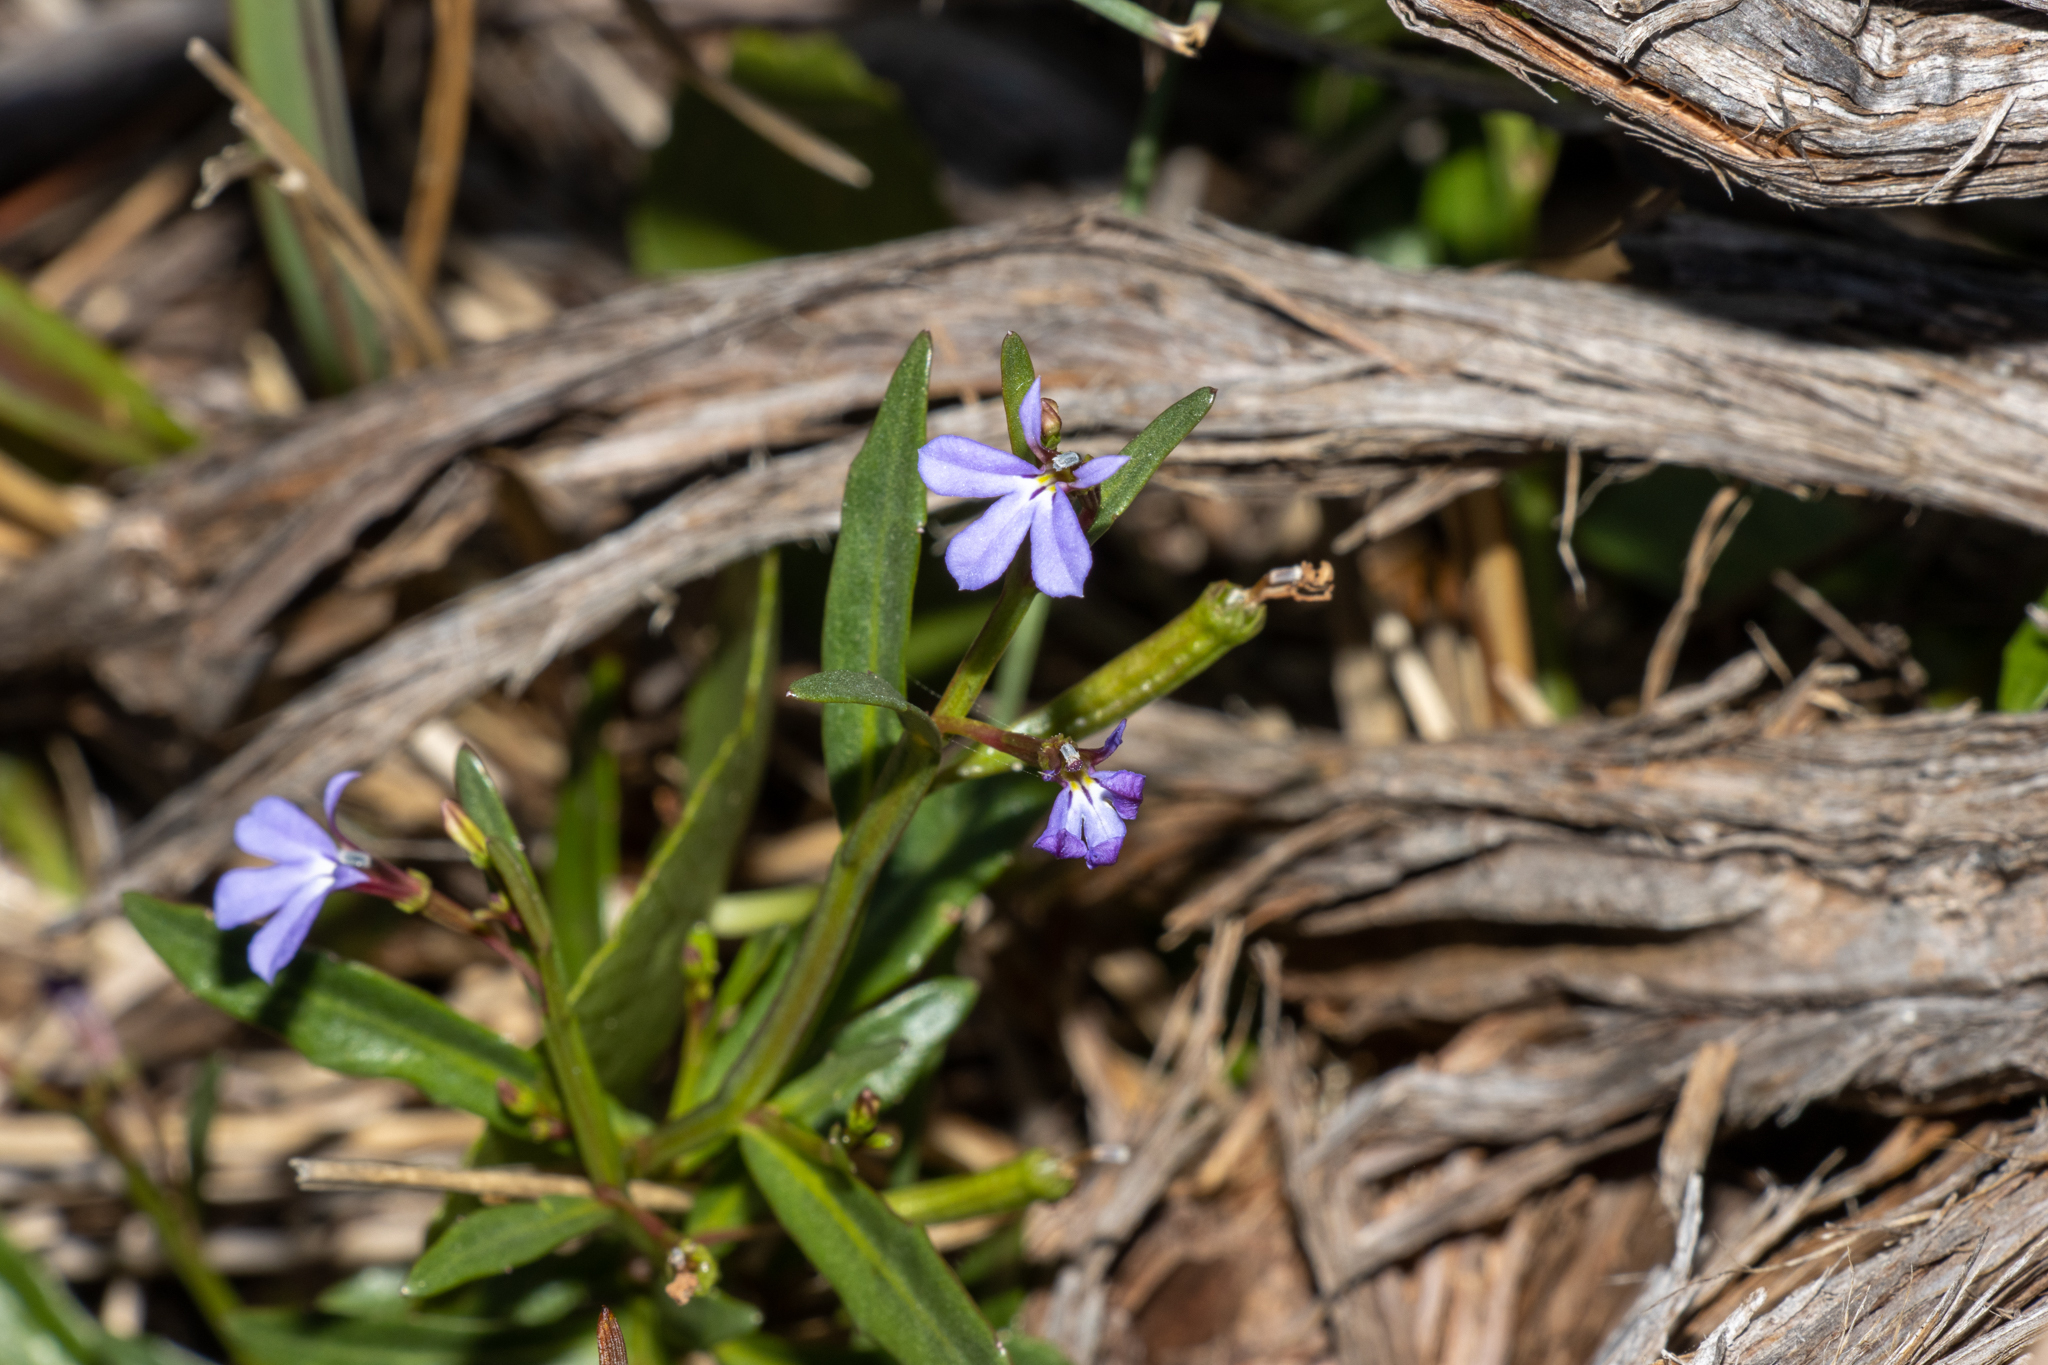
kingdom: Plantae
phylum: Tracheophyta
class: Magnoliopsida
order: Asterales
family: Campanulaceae
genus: Lobelia
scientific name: Lobelia anceps
